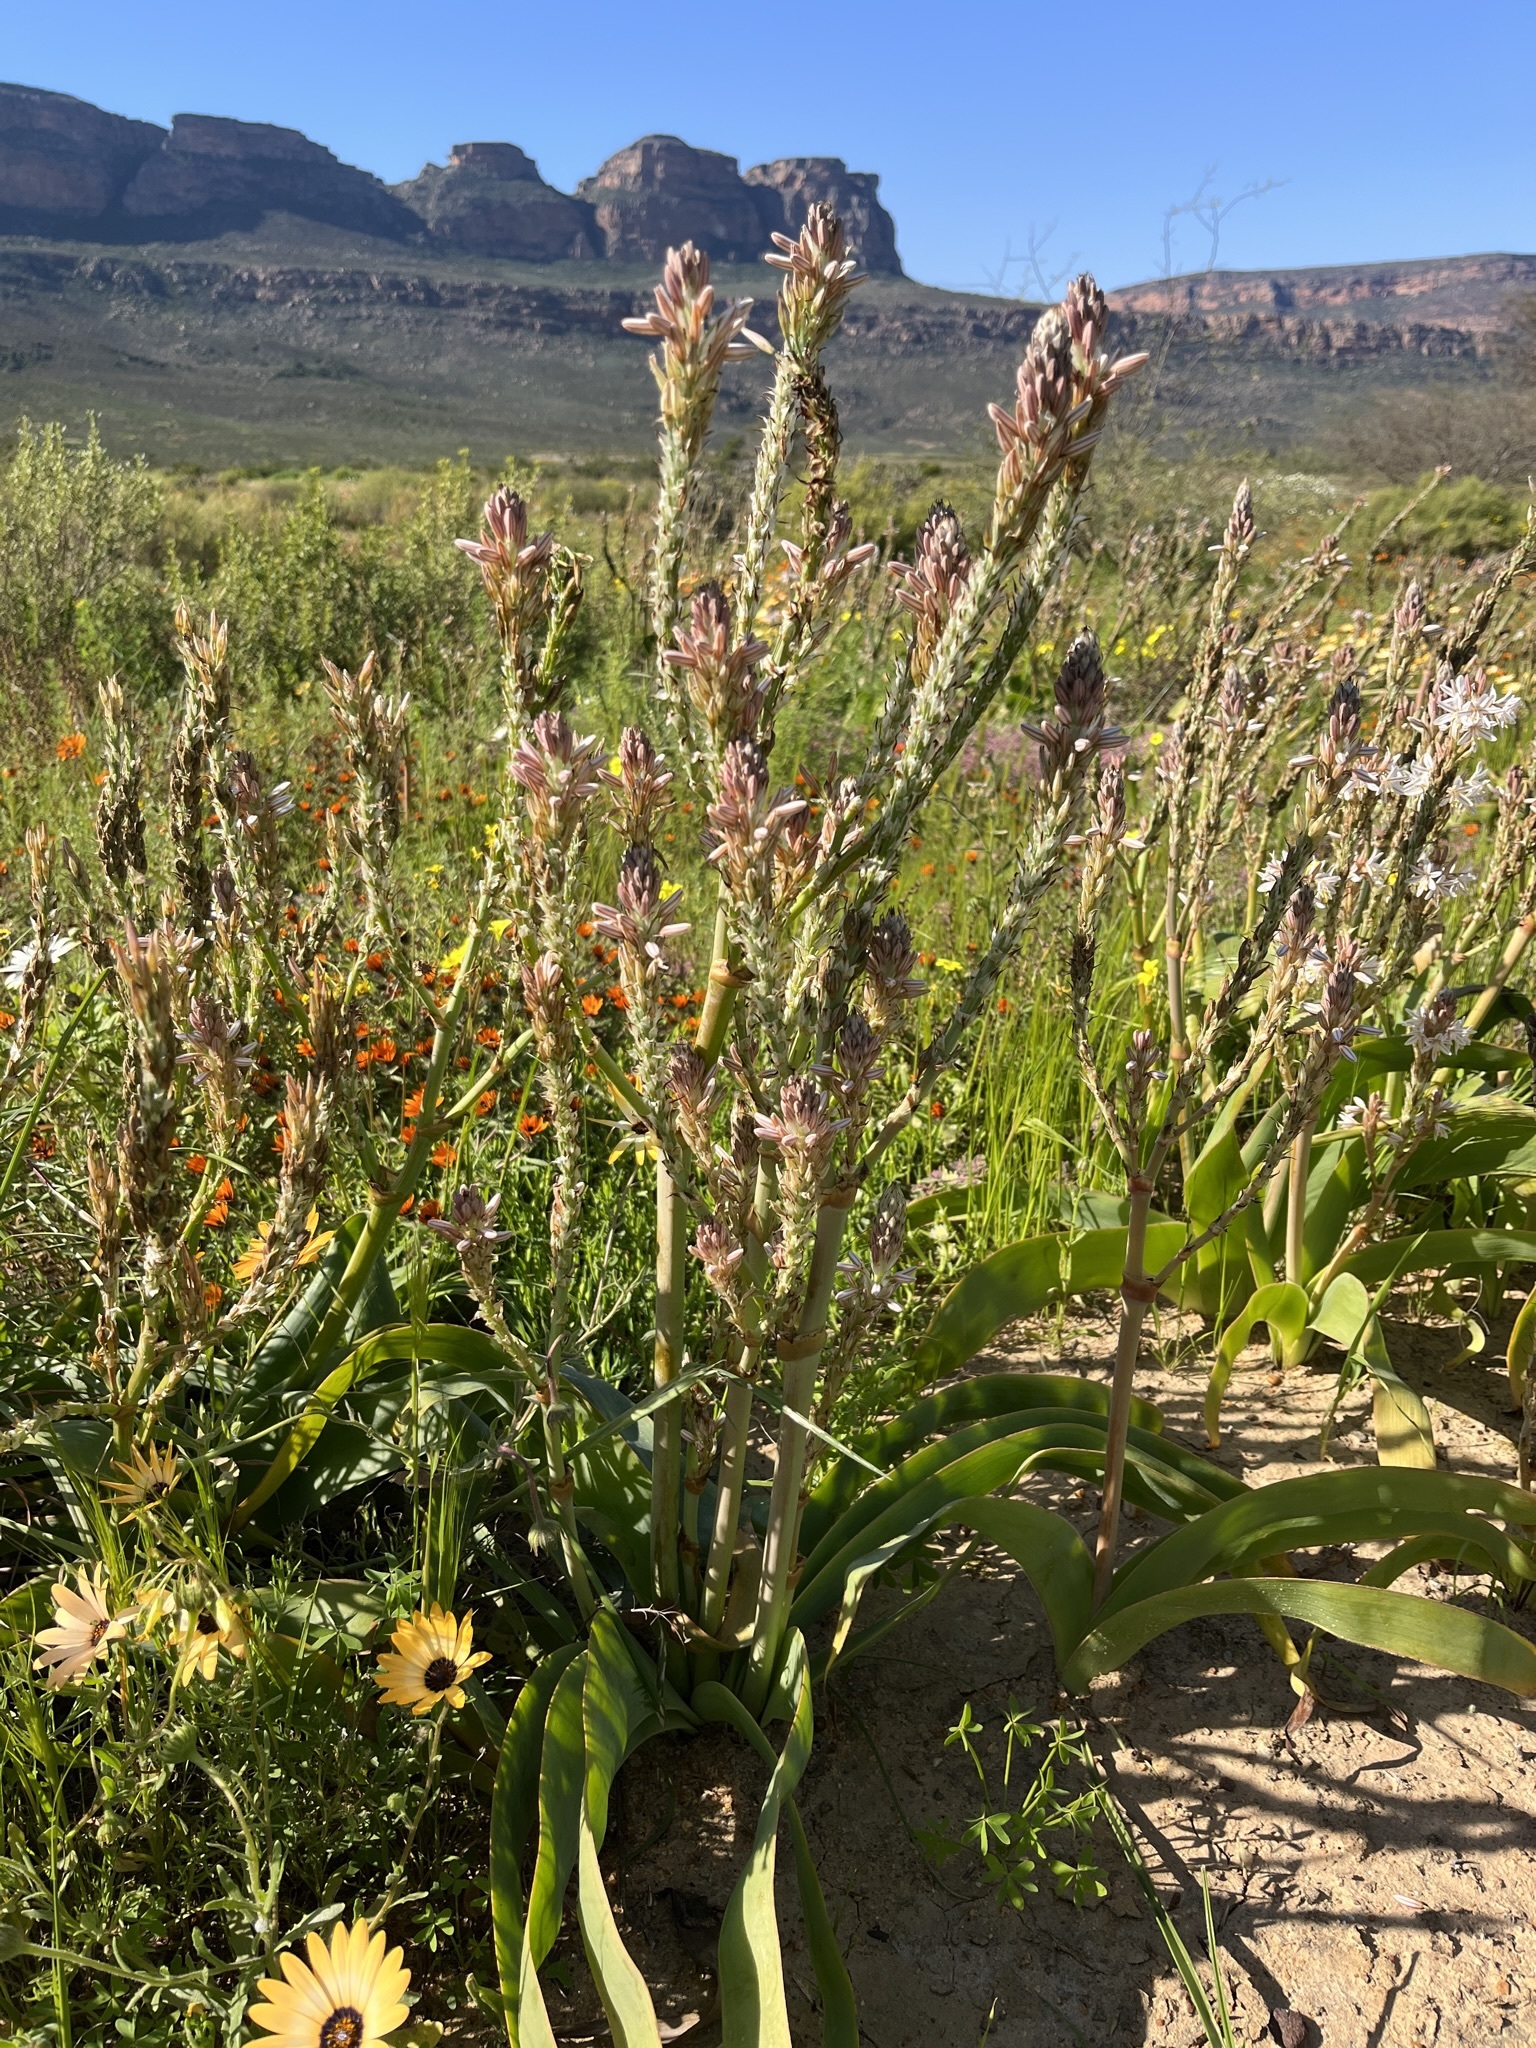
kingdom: Plantae
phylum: Tracheophyta
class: Liliopsida
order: Asparagales
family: Asphodelaceae
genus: Trachyandra
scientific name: Trachyandra falcata
